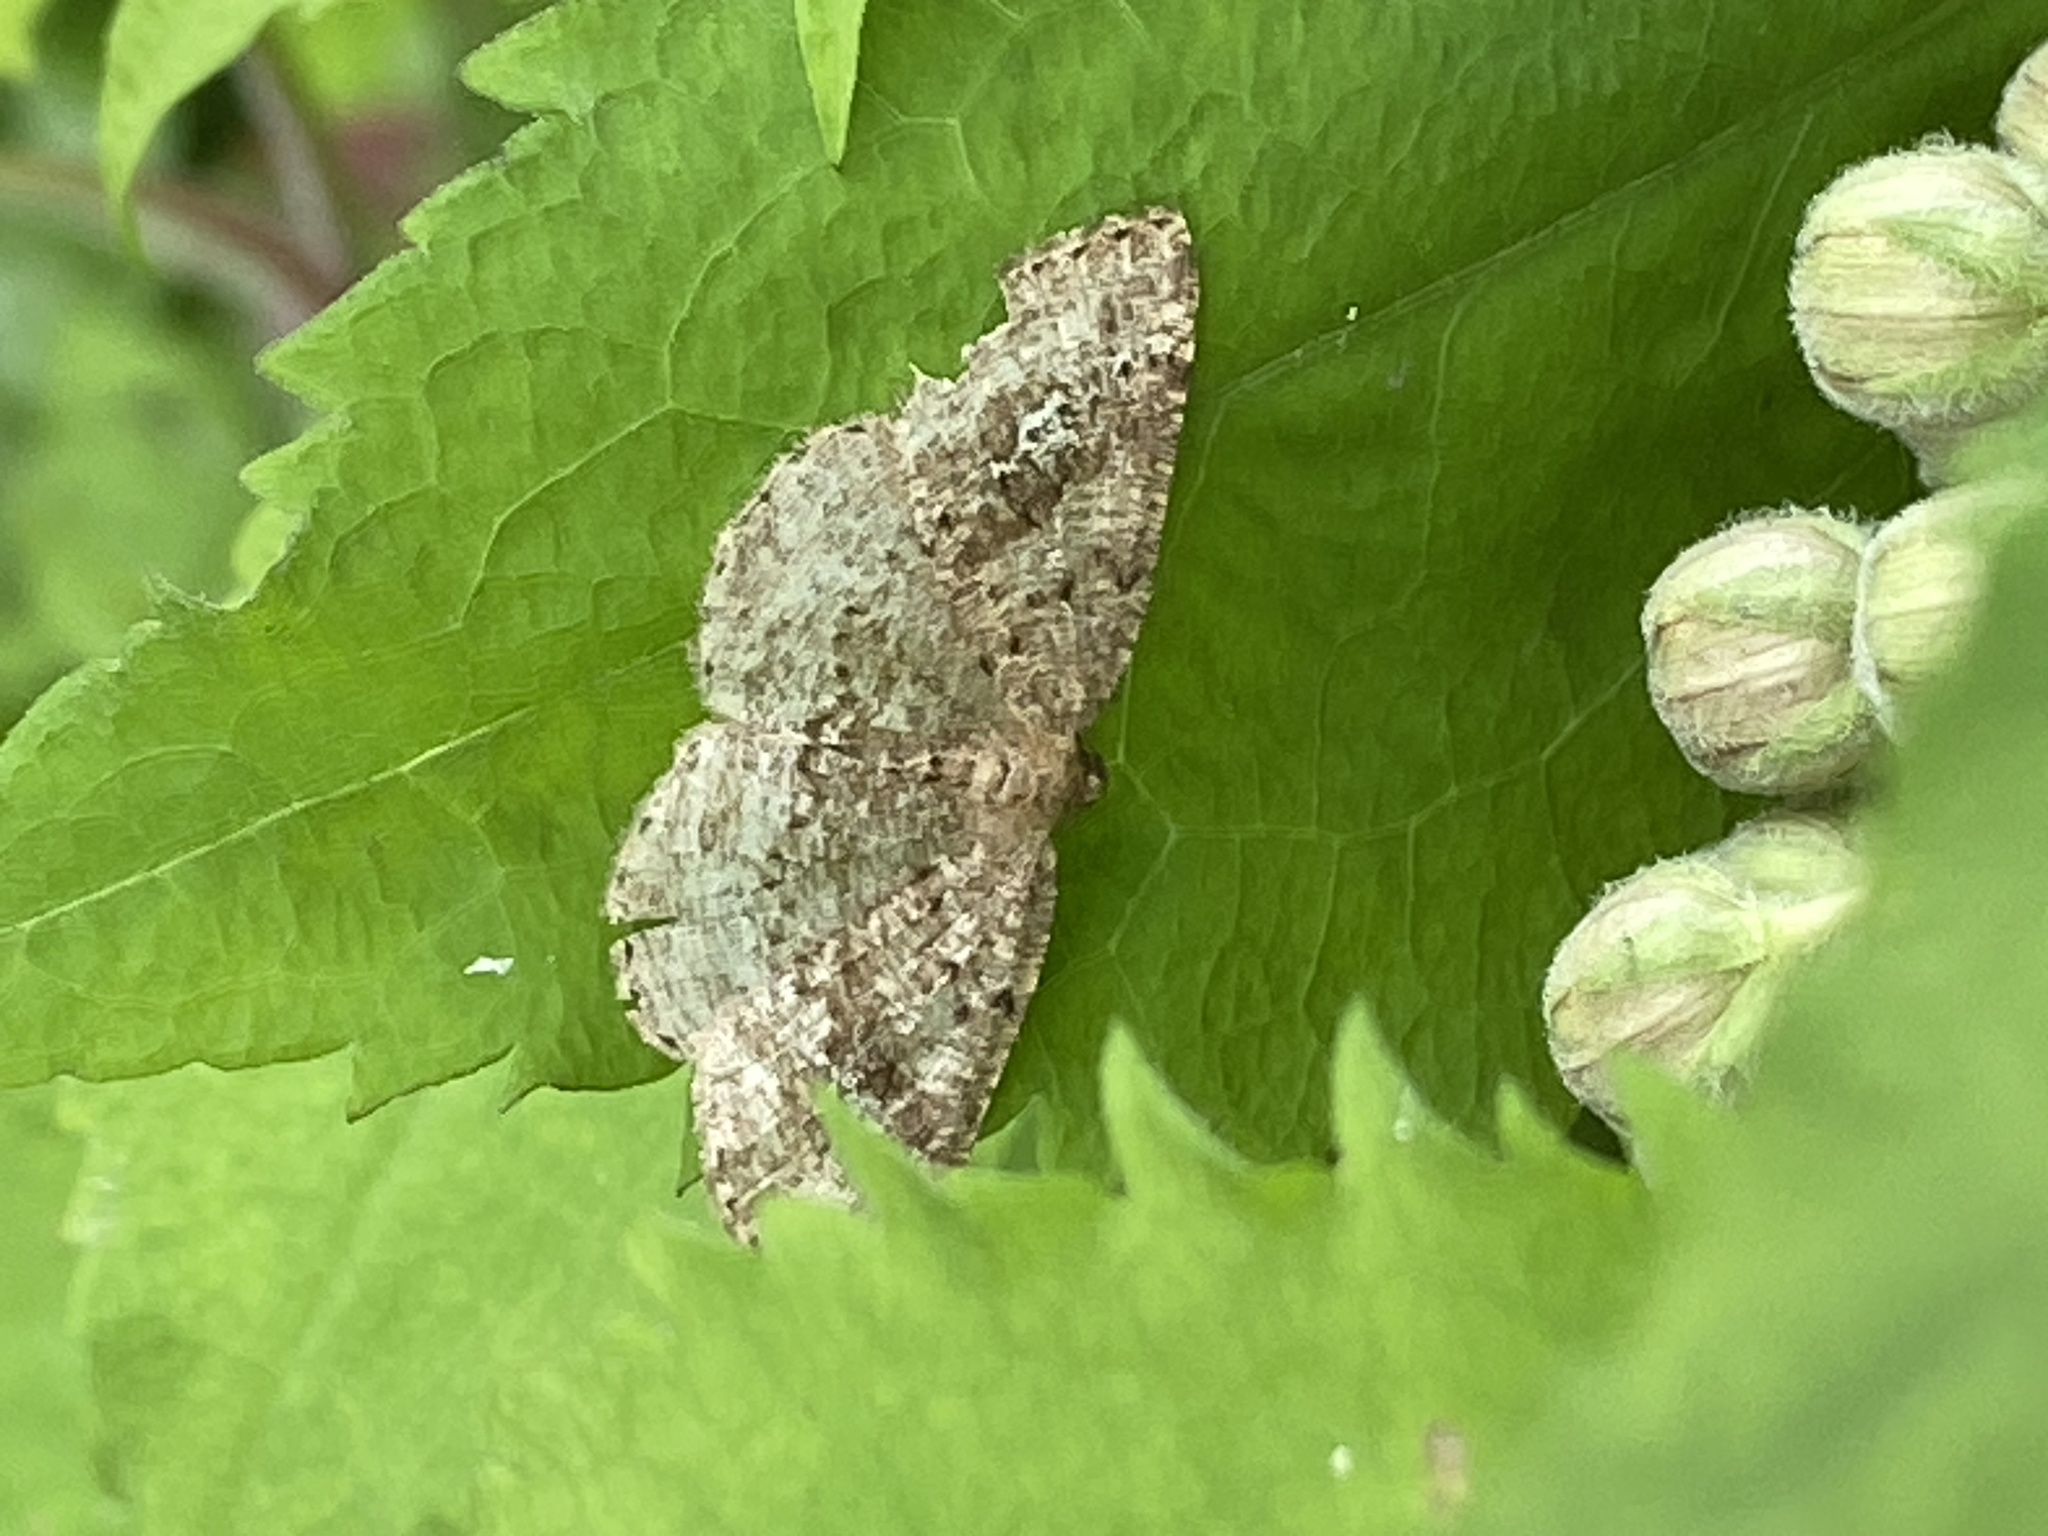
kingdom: Animalia
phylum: Arthropoda
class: Insecta
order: Lepidoptera
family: Geometridae
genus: Homochlodes
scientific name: Homochlodes fritillaria
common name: Pale homochlodes
